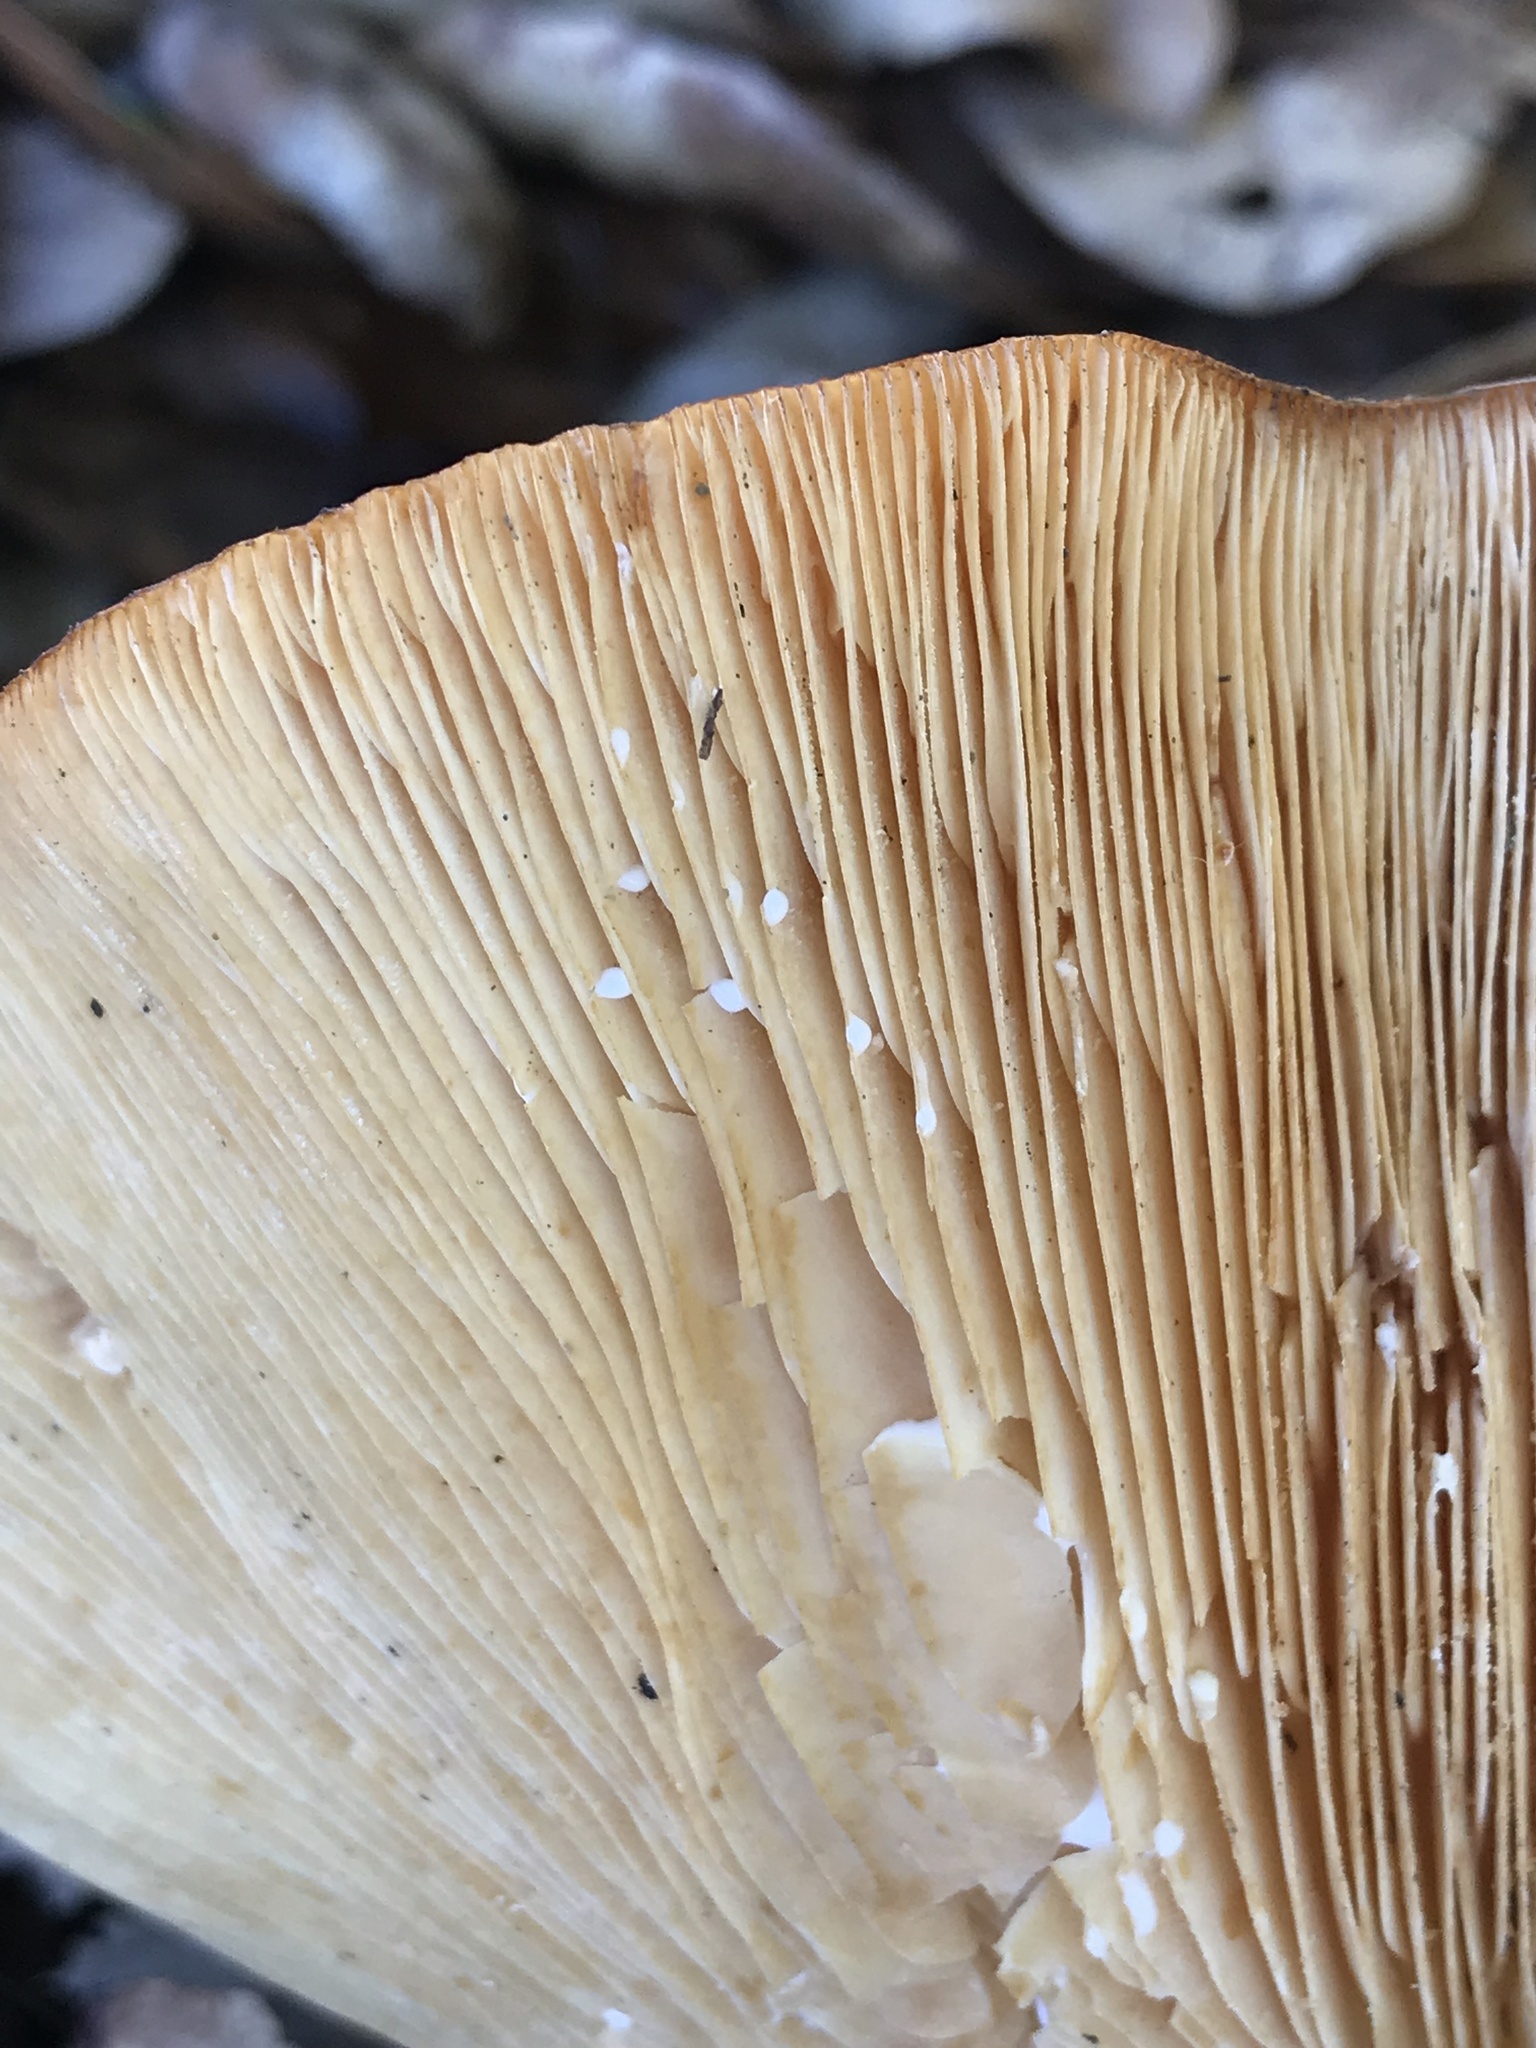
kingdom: Fungi
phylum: Basidiomycota
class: Agaricomycetes
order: Russulales
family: Russulaceae
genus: Lactarius
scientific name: Lactarius alnicola
